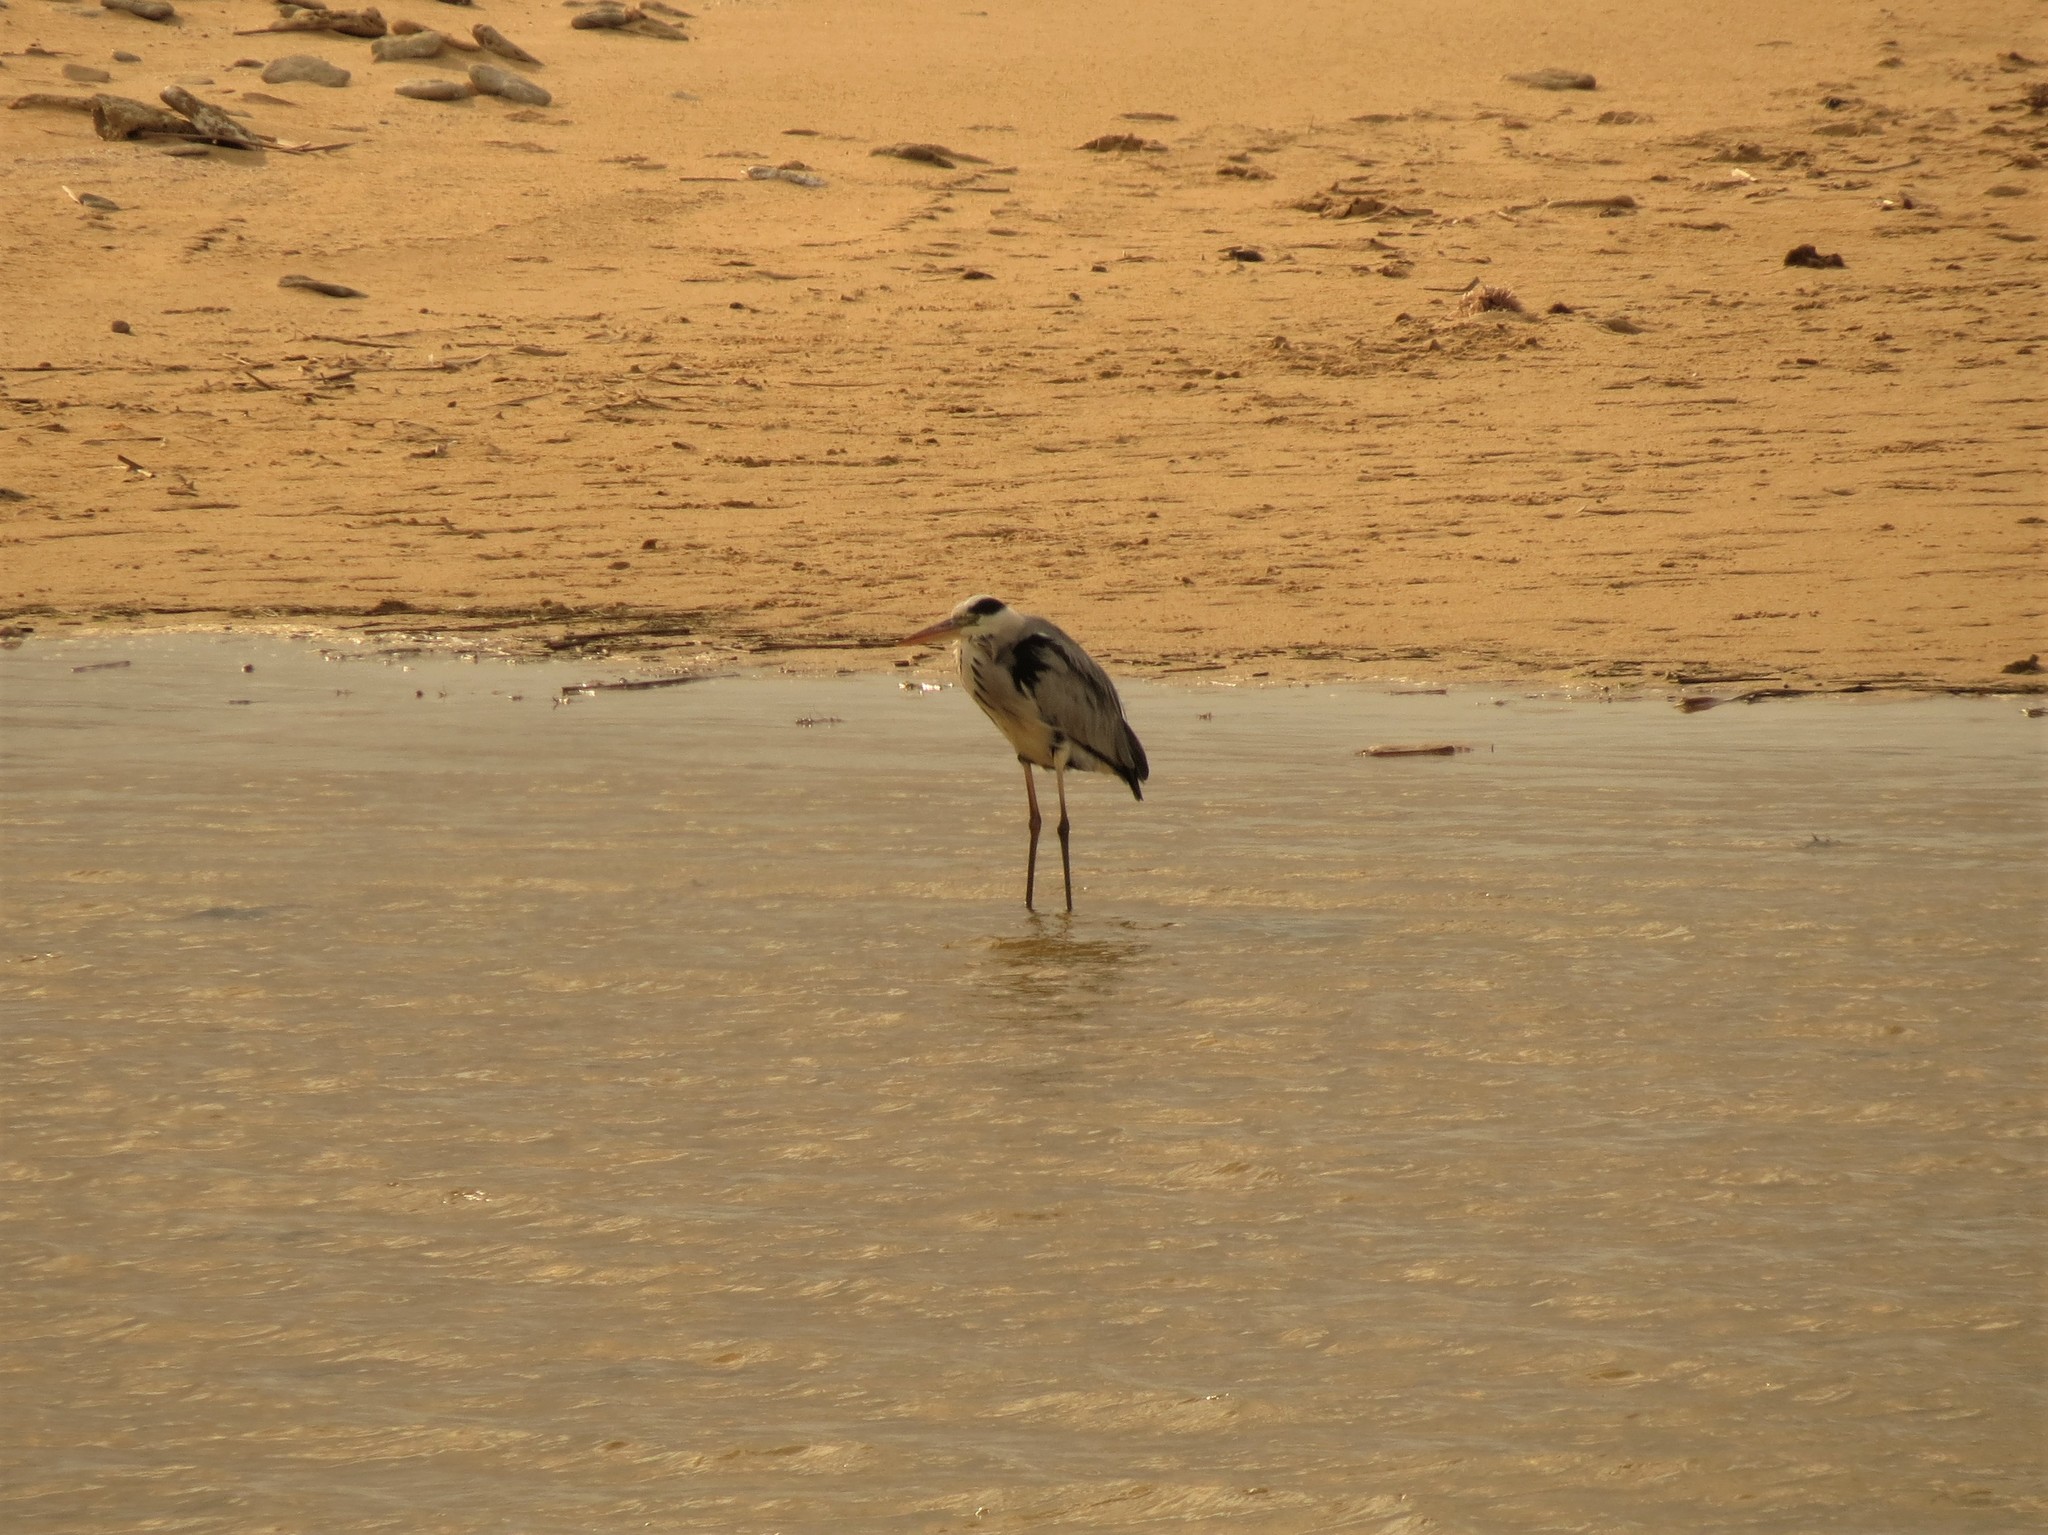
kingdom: Animalia
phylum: Chordata
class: Aves
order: Pelecaniformes
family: Ardeidae
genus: Ardea
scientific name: Ardea cinerea
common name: Grey heron
